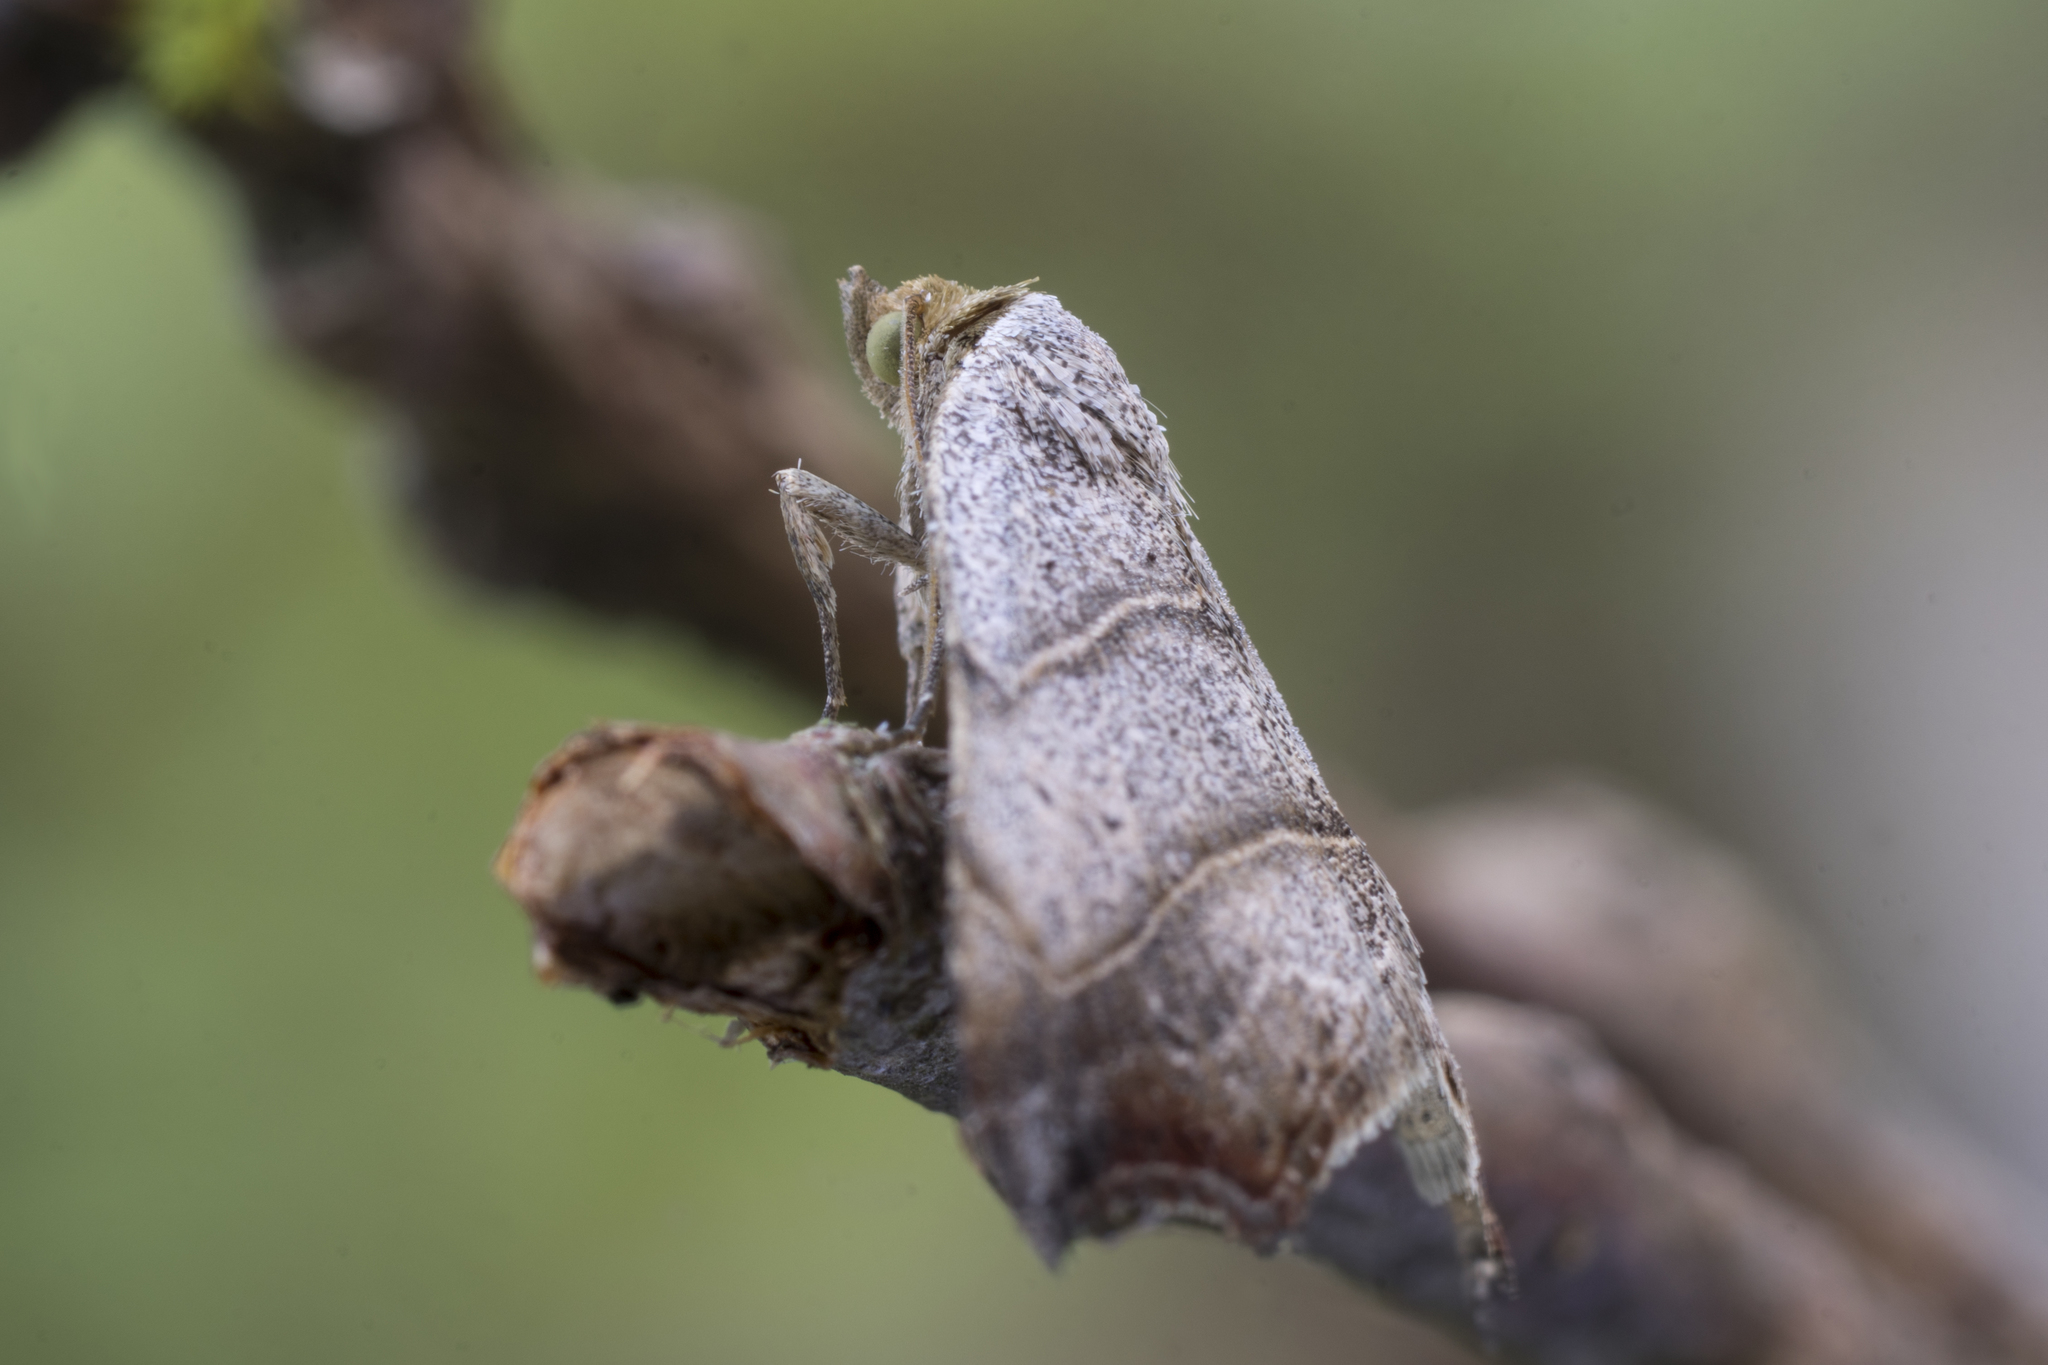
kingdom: Animalia
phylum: Arthropoda
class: Insecta
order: Lepidoptera
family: Erebidae
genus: Laspeyria
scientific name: Laspeyria flexula
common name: Beautiful hook-tip
